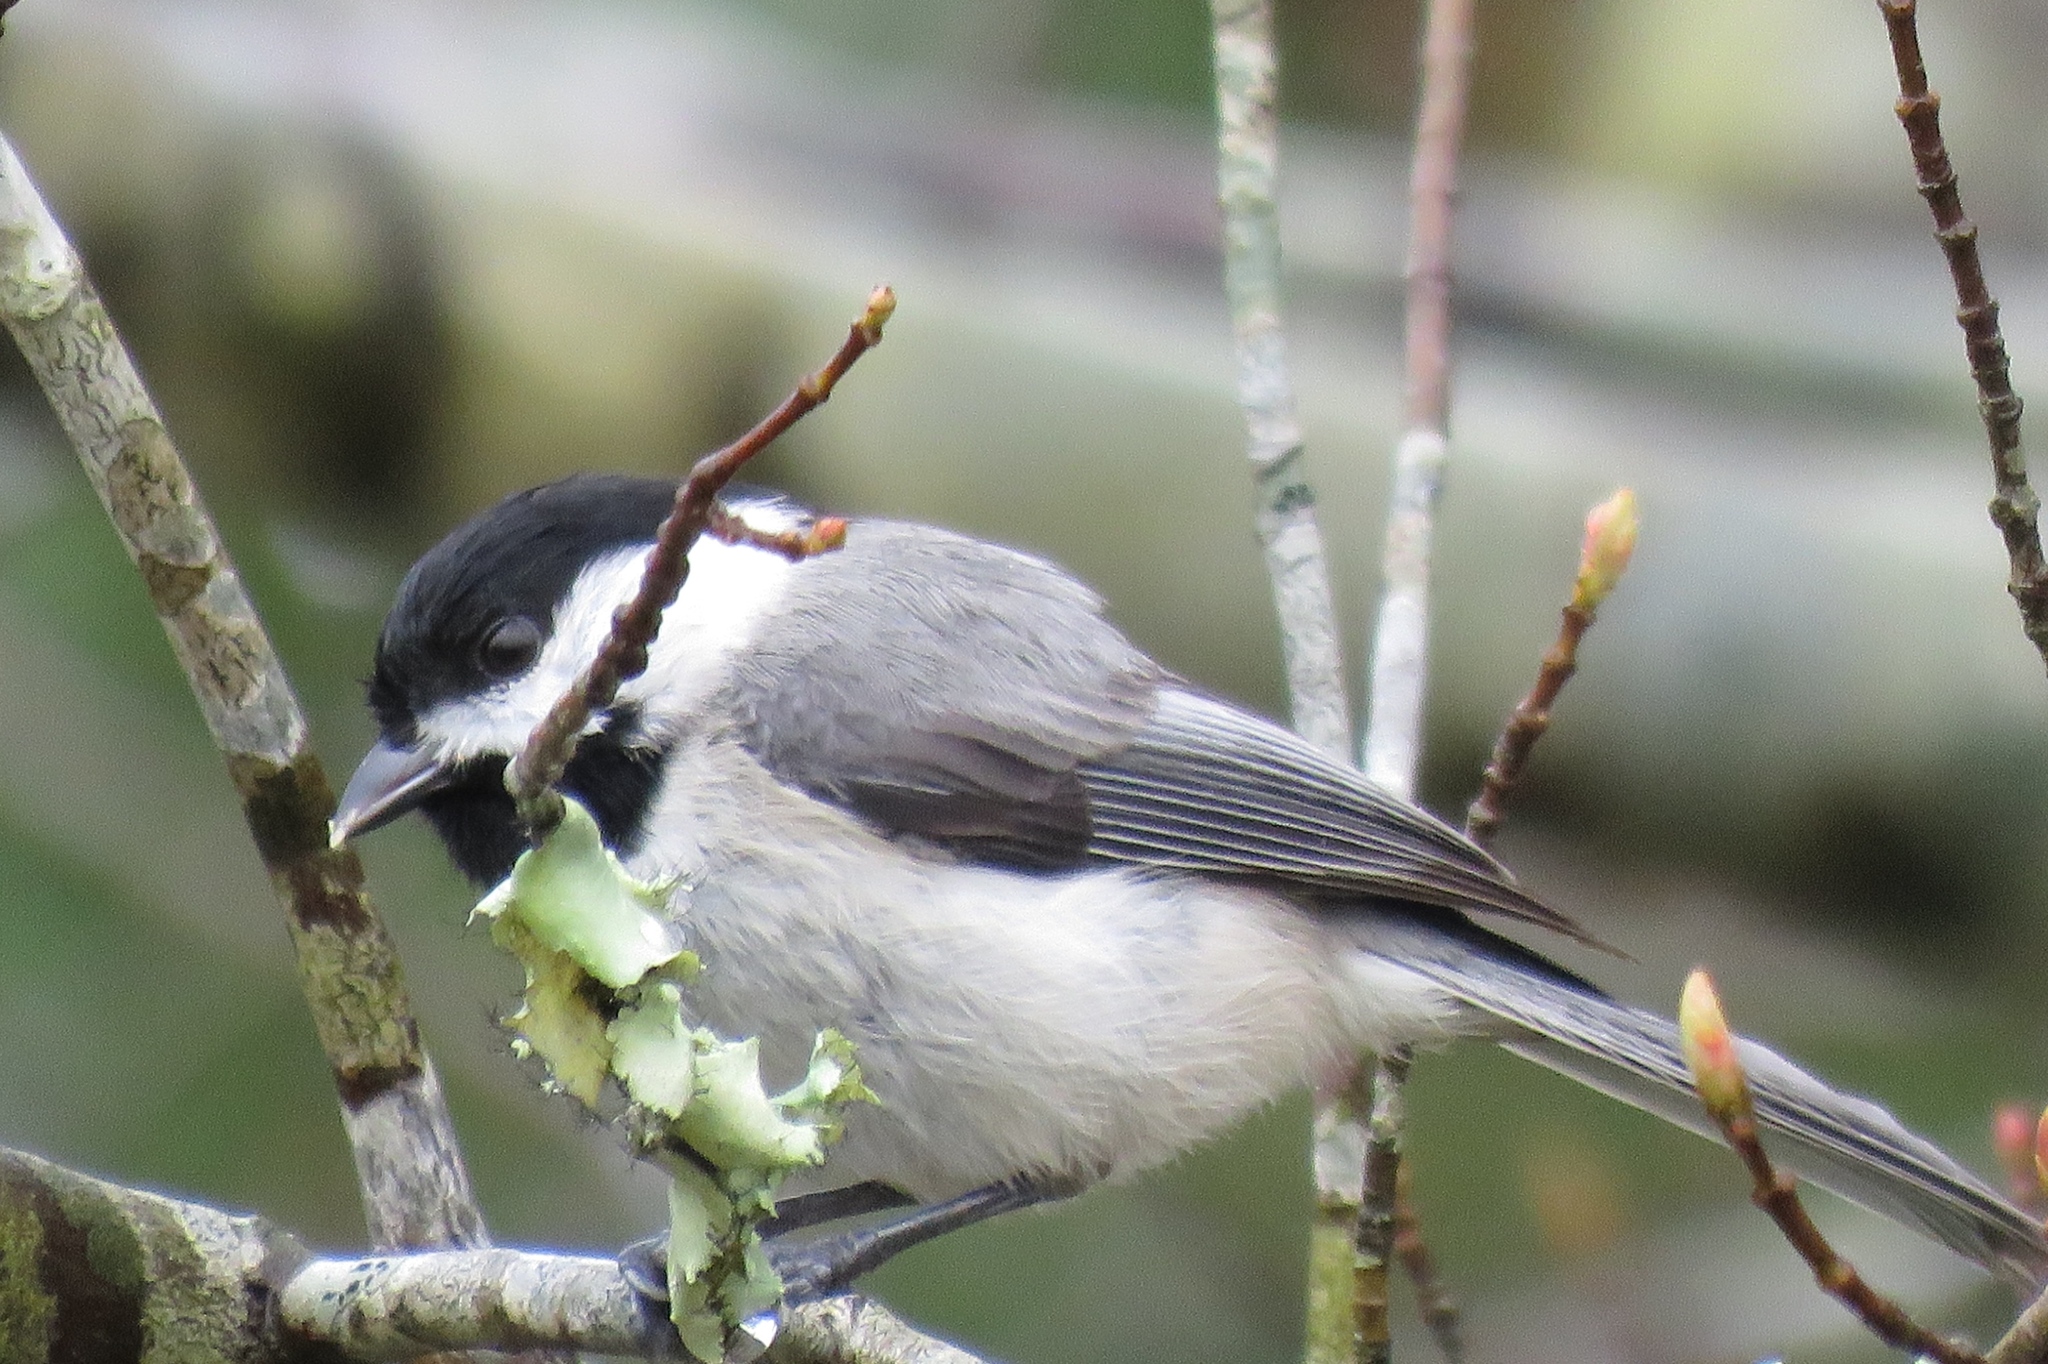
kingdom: Animalia
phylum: Chordata
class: Aves
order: Passeriformes
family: Paridae
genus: Poecile
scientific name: Poecile carolinensis
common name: Carolina chickadee
